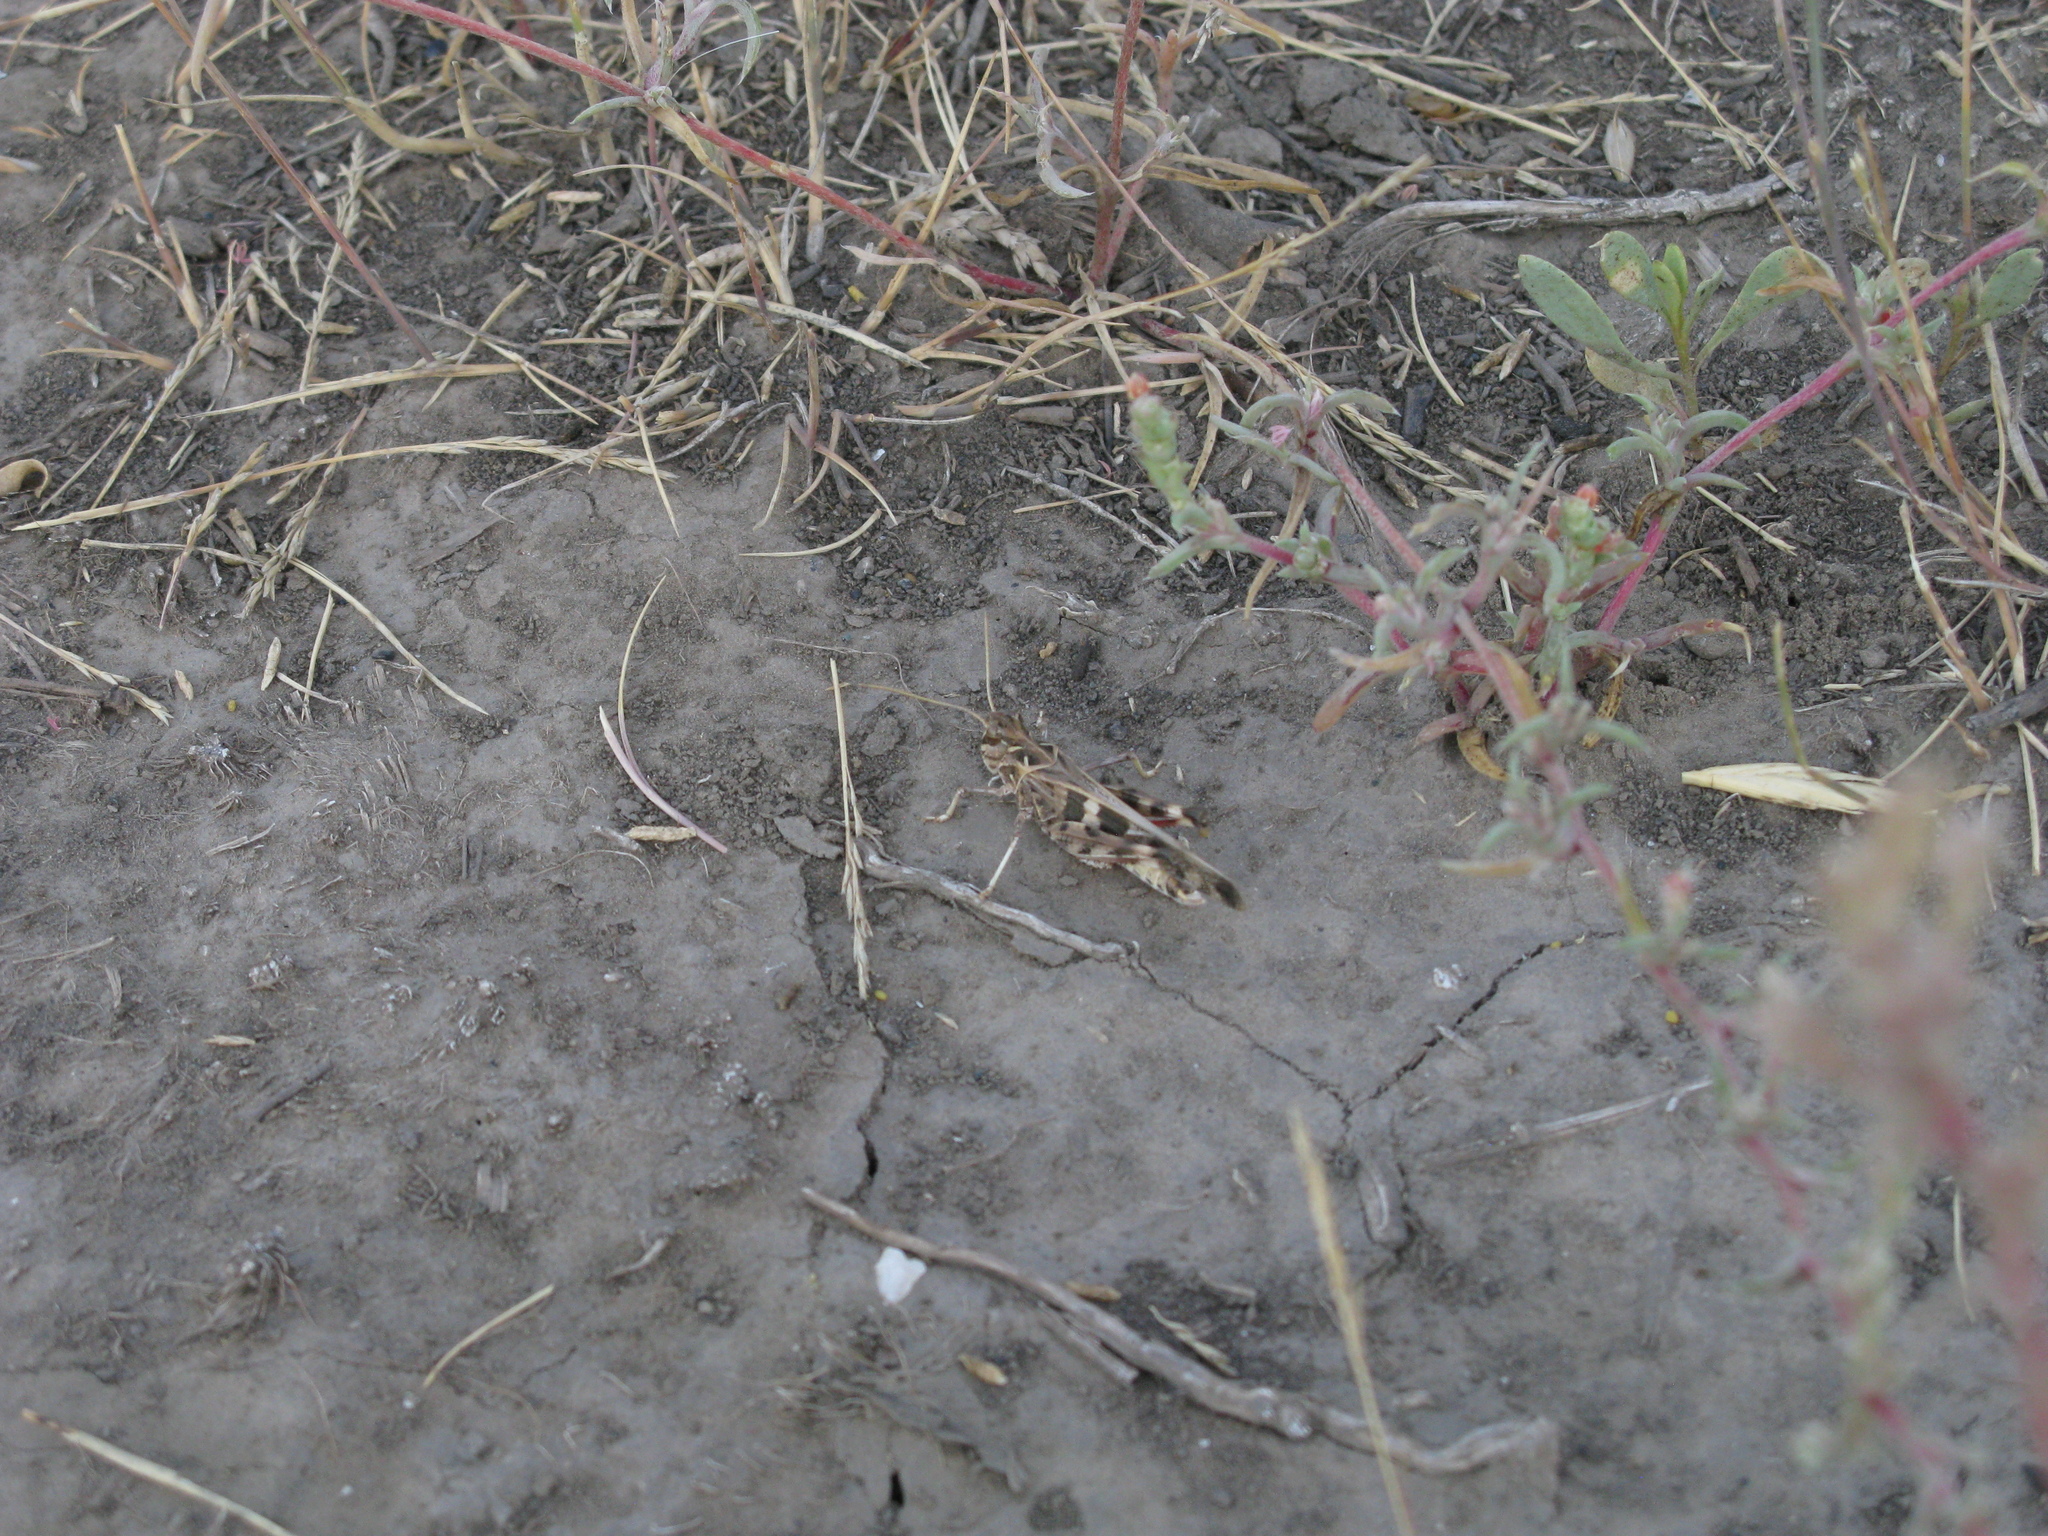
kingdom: Animalia
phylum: Arthropoda
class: Insecta
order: Orthoptera
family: Acrididae
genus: Oedaleus
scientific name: Oedaleus decorus
